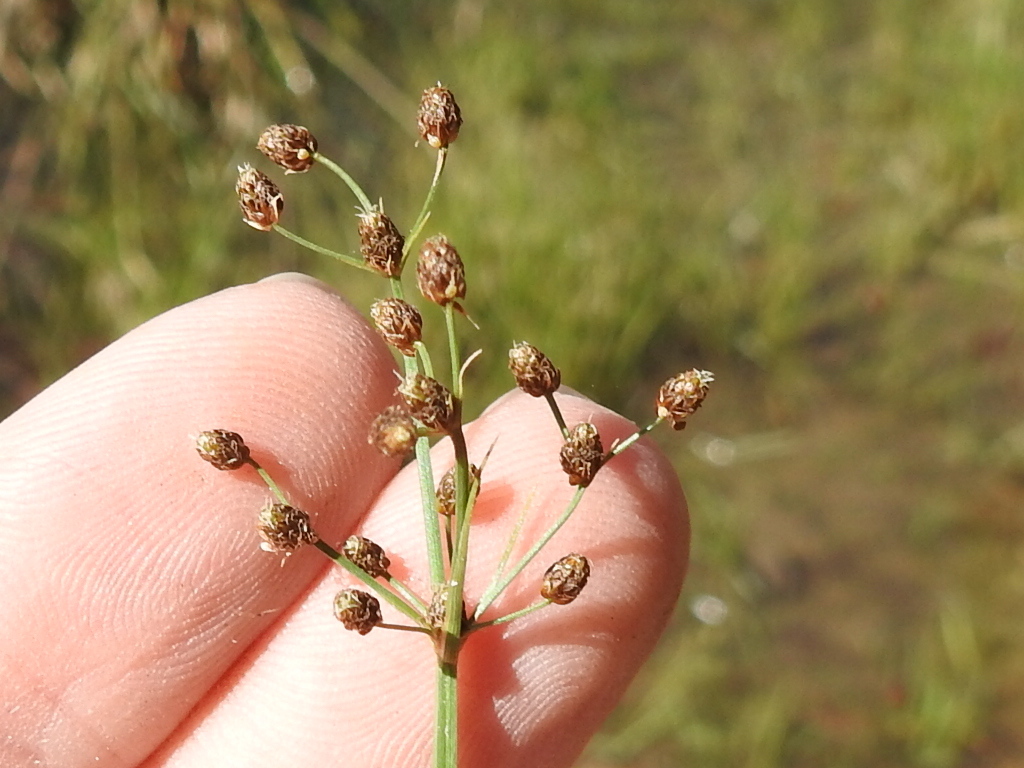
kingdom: Plantae
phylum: Tracheophyta
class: Liliopsida
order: Poales
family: Cyperaceae
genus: Fimbristylis
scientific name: Fimbristylis quinquangularis
